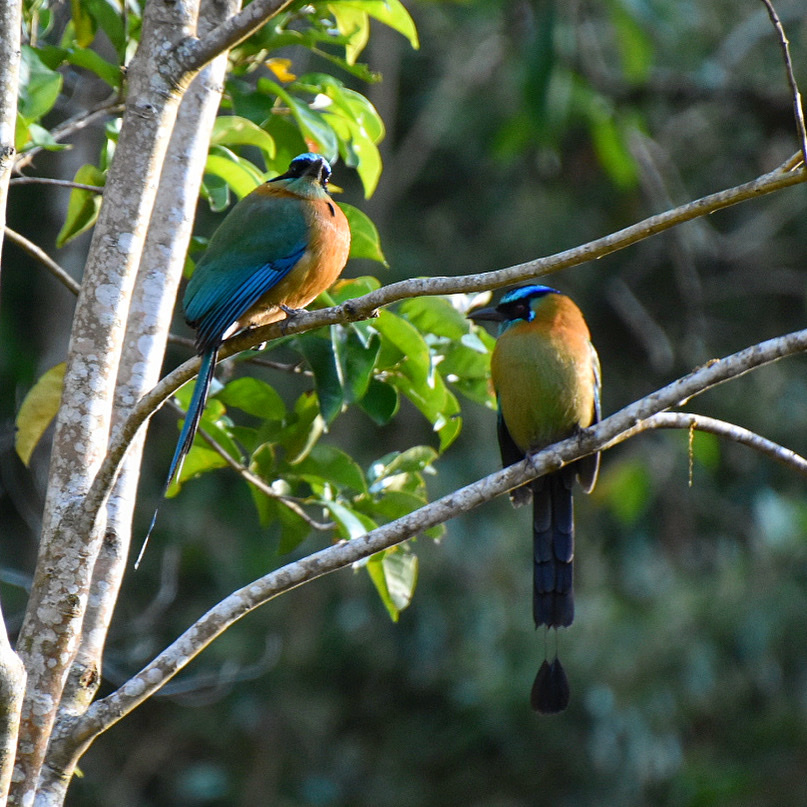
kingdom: Animalia
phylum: Chordata
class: Aves
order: Coraciiformes
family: Momotidae
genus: Momotus
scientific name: Momotus lessonii
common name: Lesson's motmot
